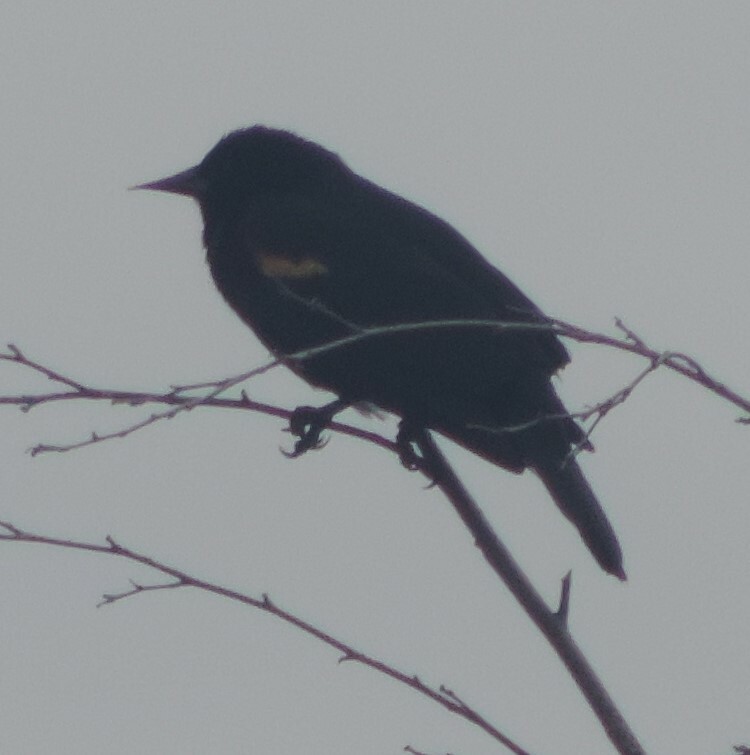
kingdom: Animalia
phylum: Chordata
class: Aves
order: Passeriformes
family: Icteridae
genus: Agelaius
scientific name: Agelaius phoeniceus
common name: Red-winged blackbird
